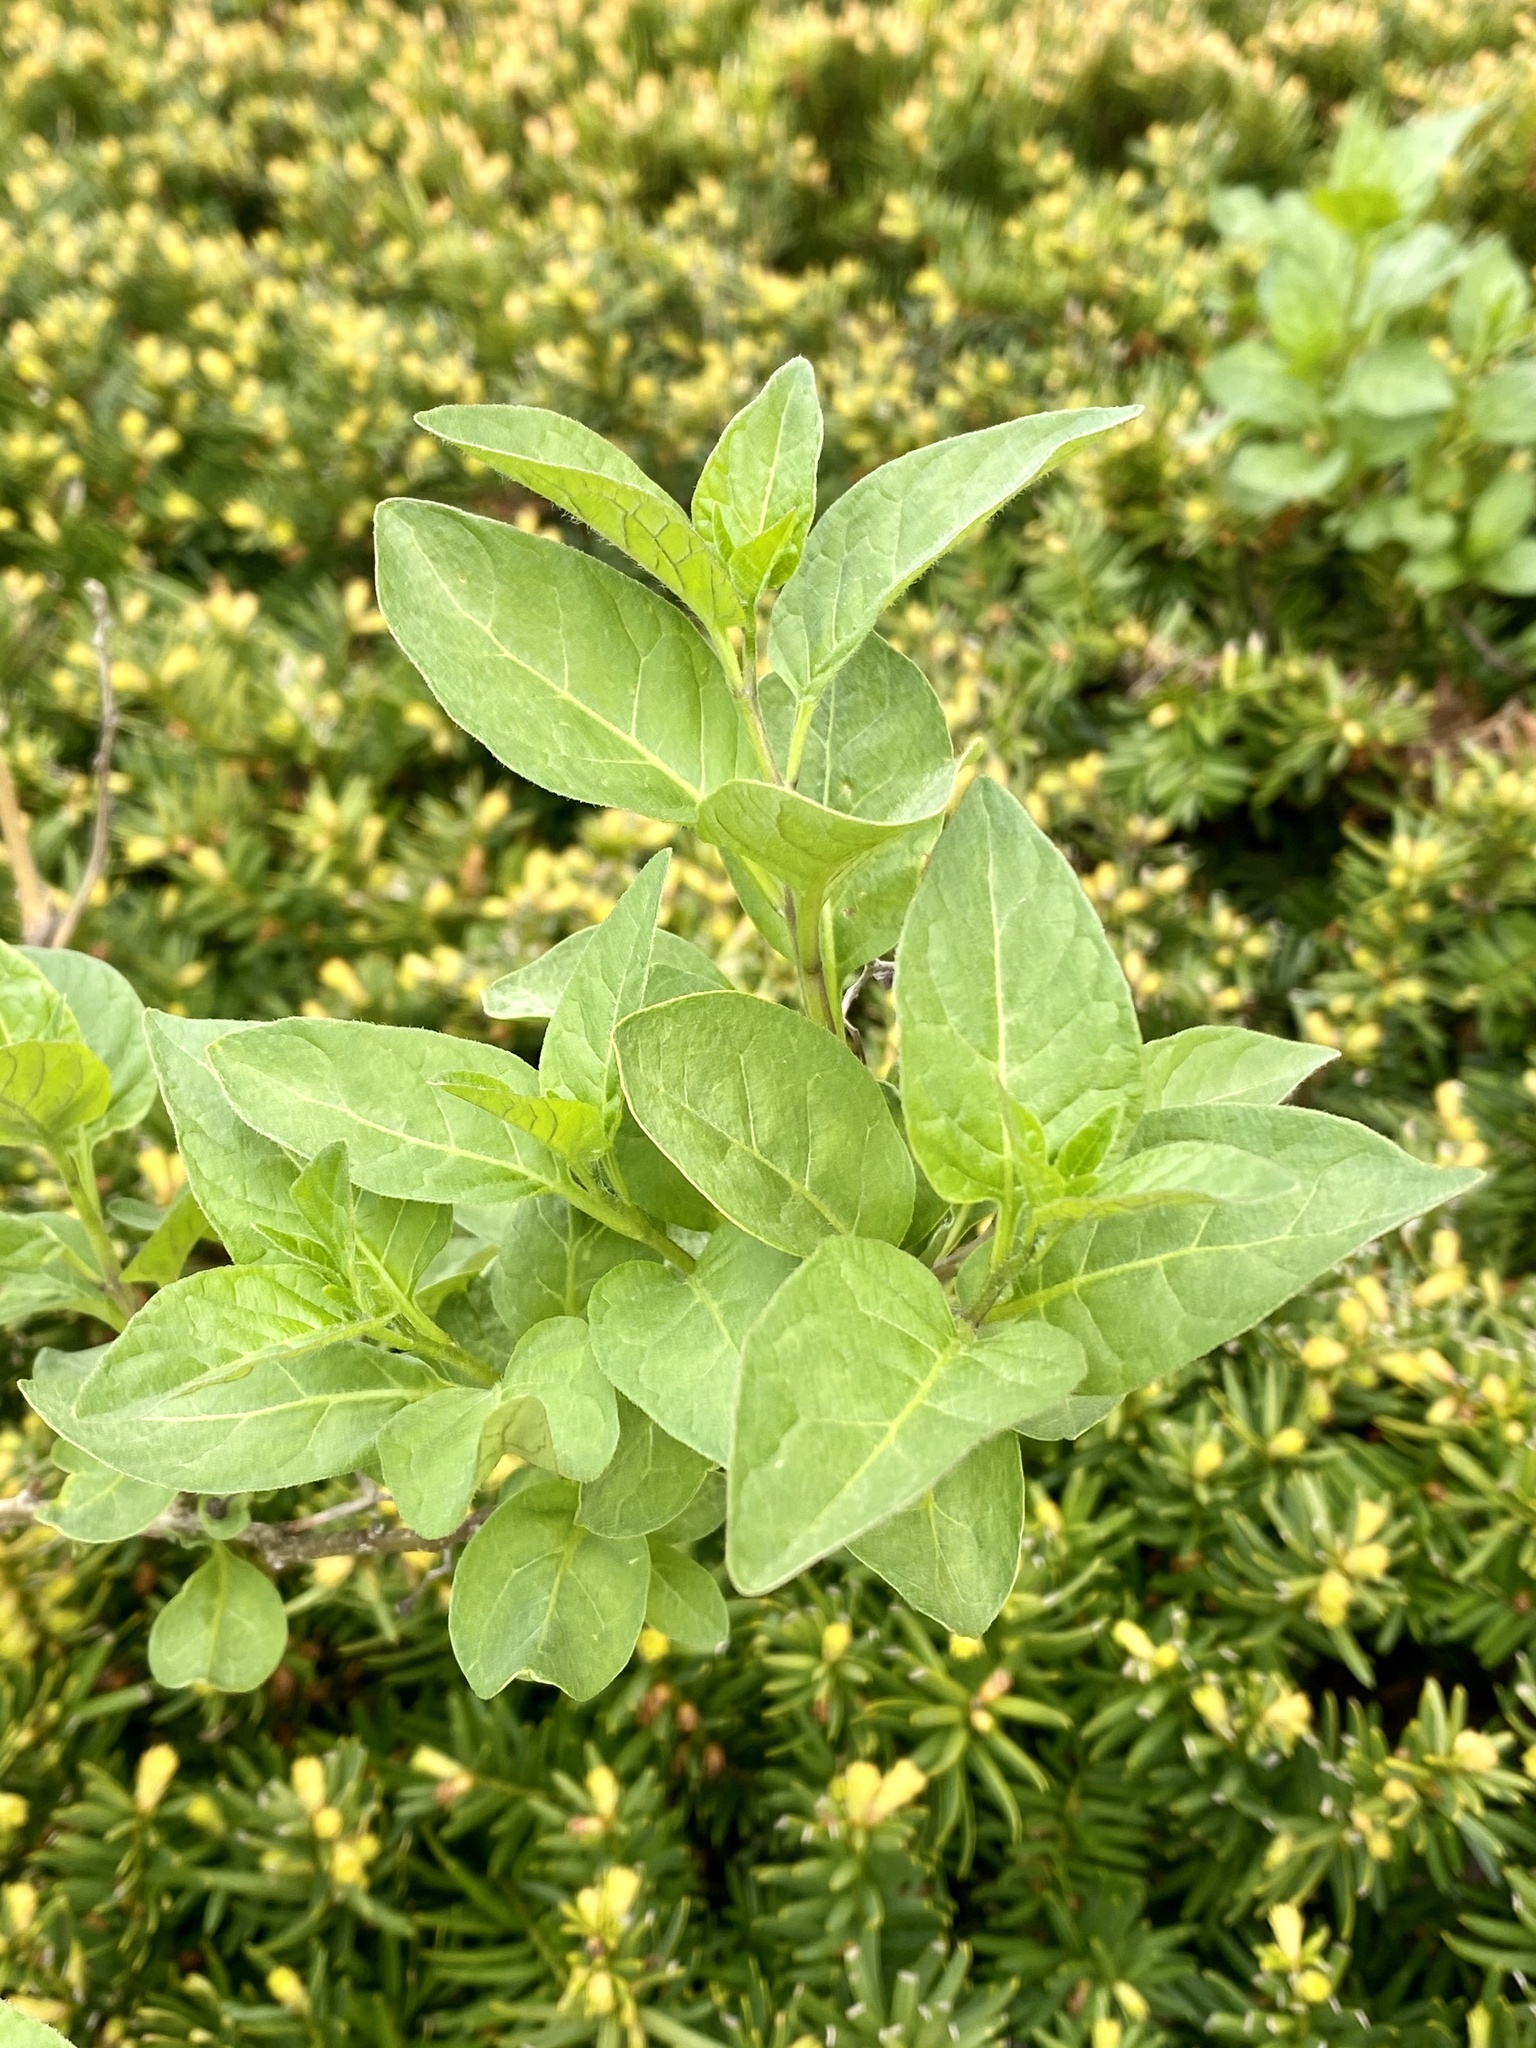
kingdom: Plantae
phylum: Tracheophyta
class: Magnoliopsida
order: Solanales
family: Solanaceae
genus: Solanum
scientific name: Solanum dulcamara
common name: Climbing nightshade
